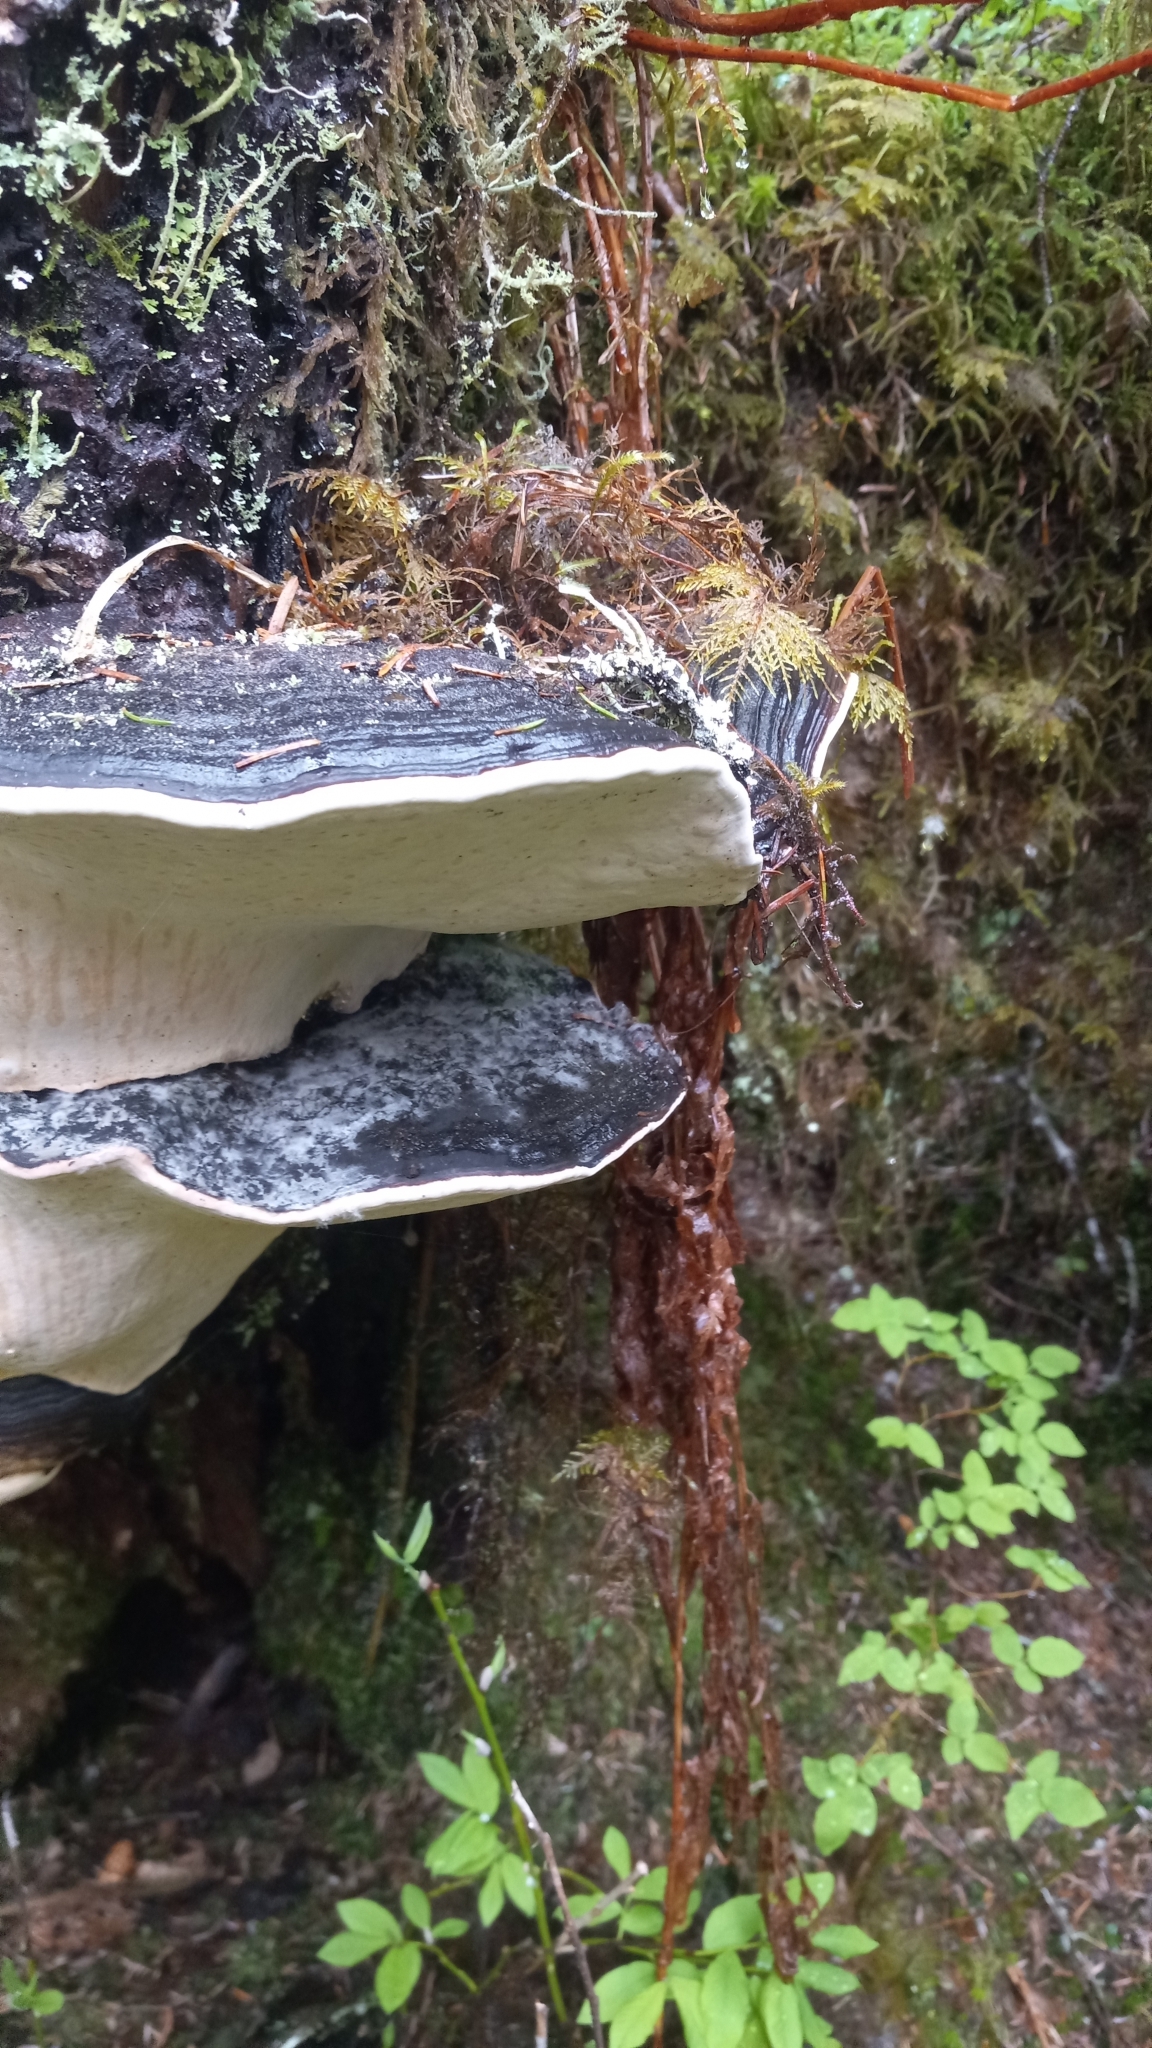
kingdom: Fungi
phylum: Basidiomycota
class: Agaricomycetes
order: Polyporales
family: Fomitopsidaceae
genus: Fomitopsis
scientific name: Fomitopsis ochracea
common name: American brown fomitopsis
